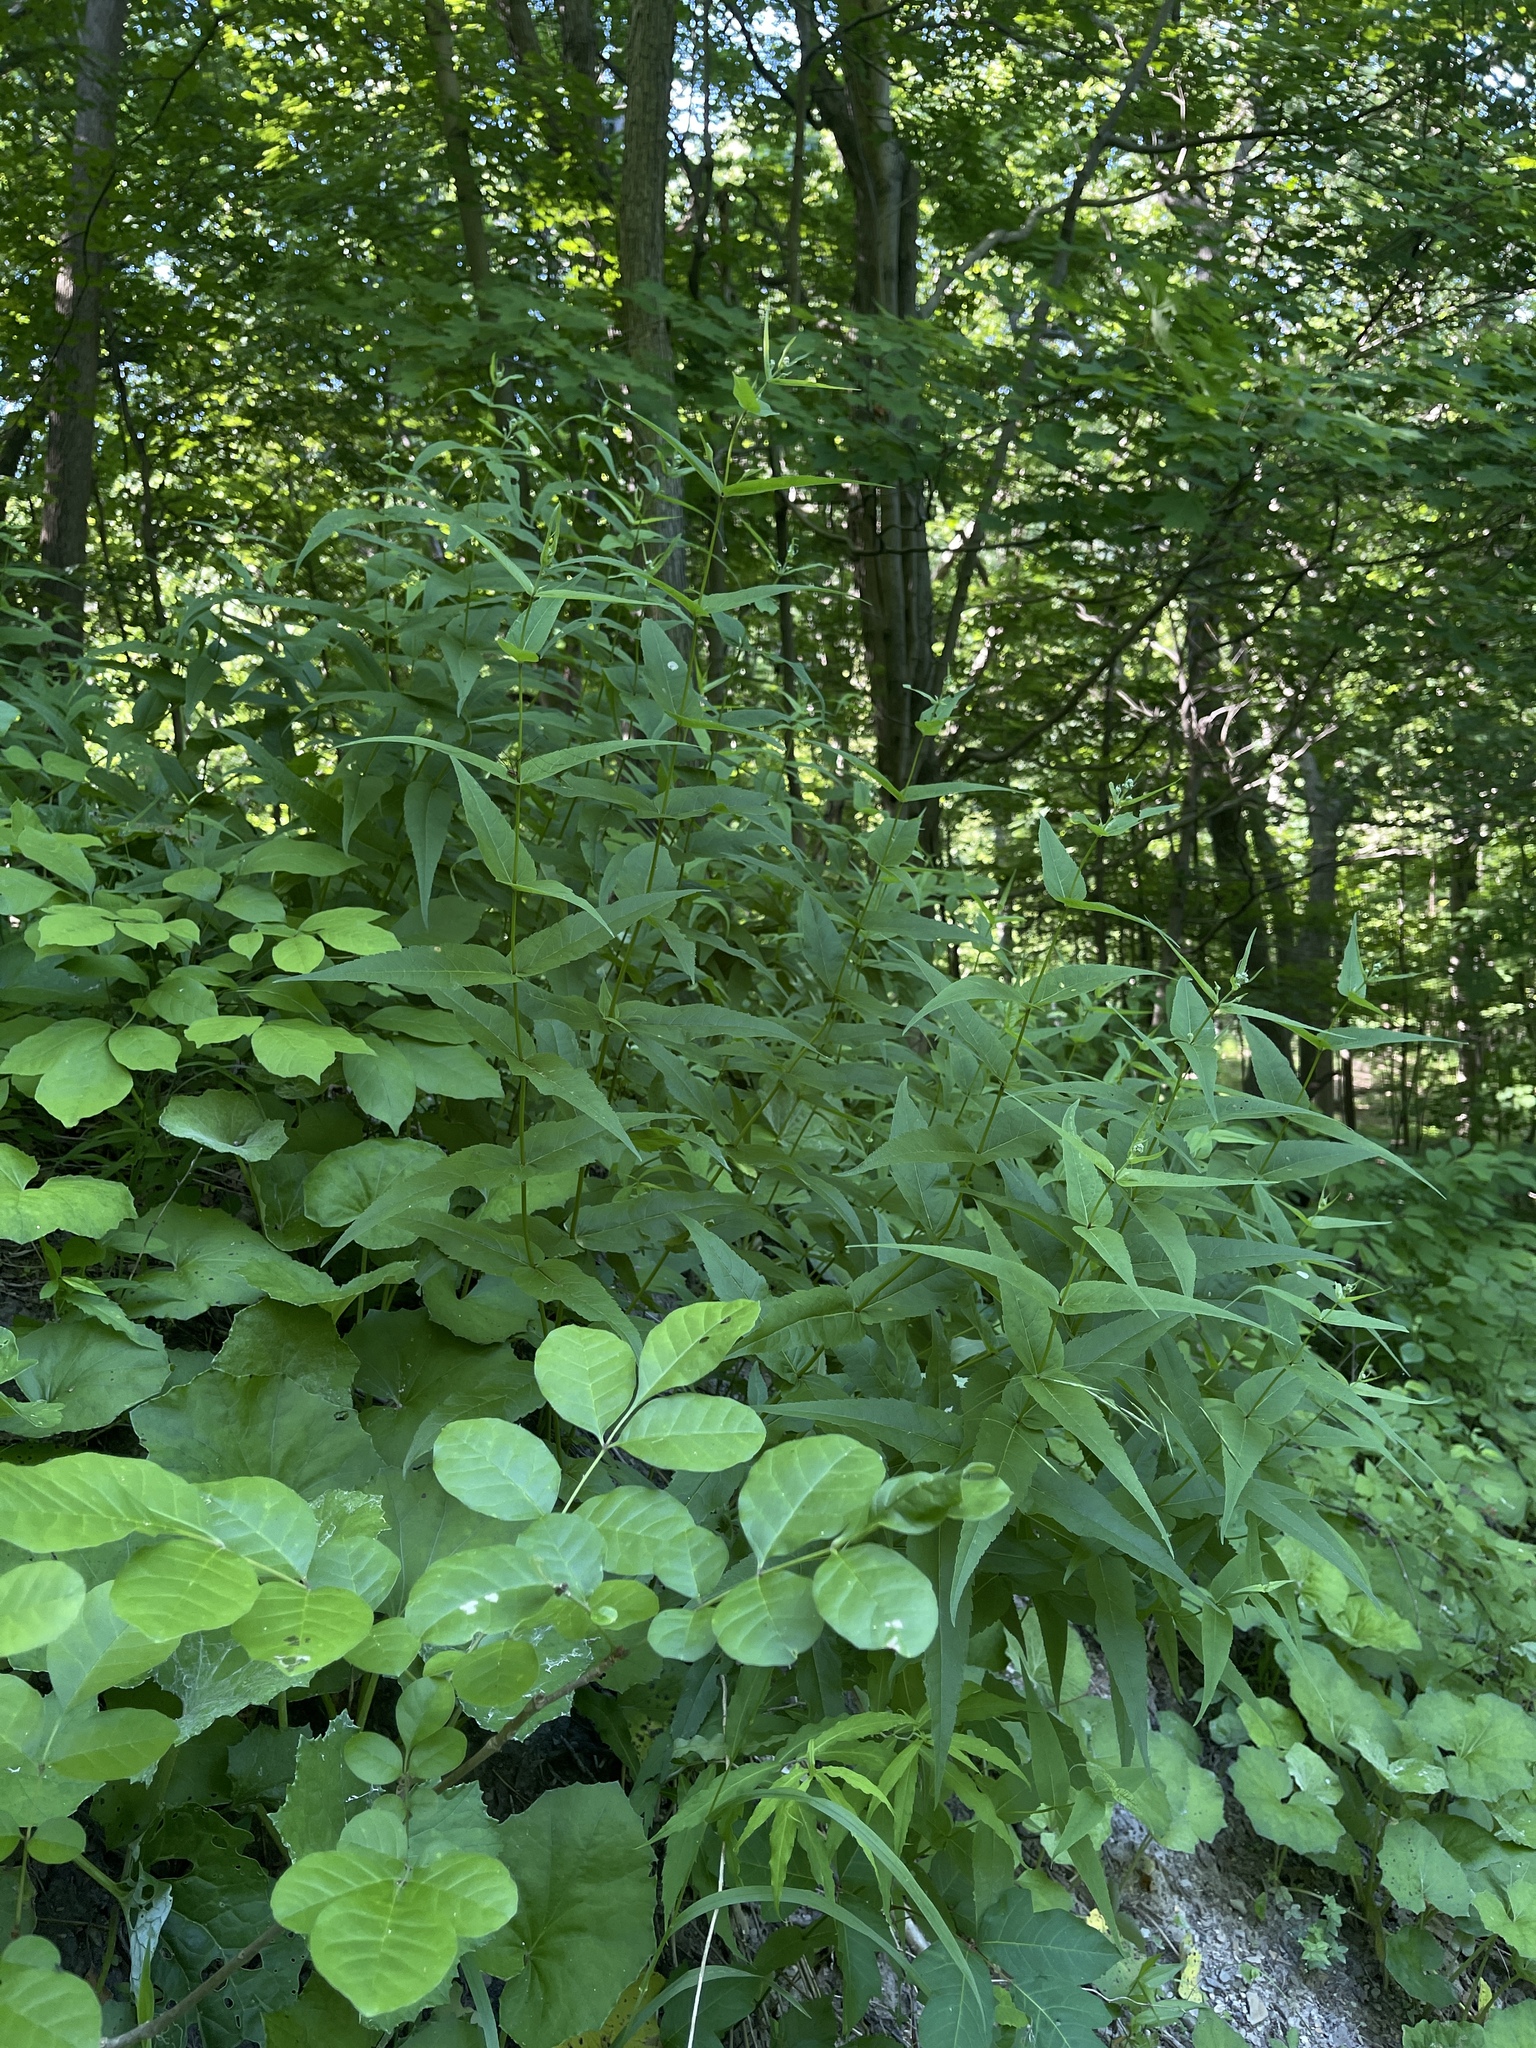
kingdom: Plantae
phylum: Tracheophyta
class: Magnoliopsida
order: Asterales
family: Asteraceae
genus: Eupatorium
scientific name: Eupatorium sessilifolium
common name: Upland boneset
